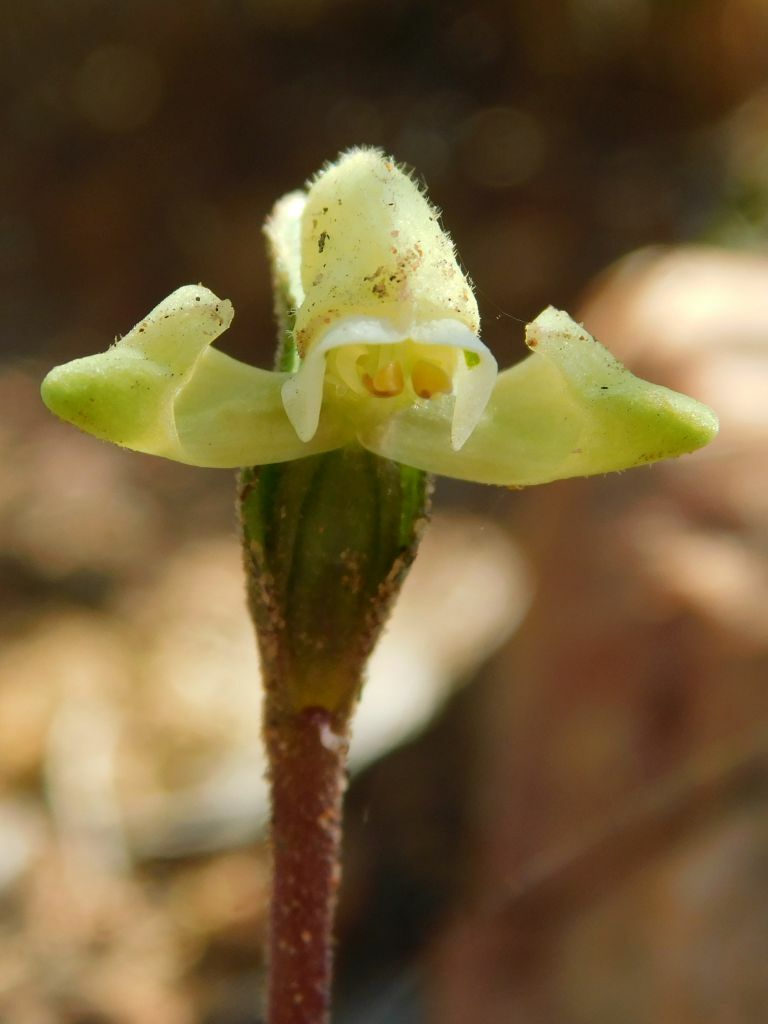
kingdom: Plantae
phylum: Tracheophyta
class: Liliopsida
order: Asparagales
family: Orchidaceae
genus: Disperis
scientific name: Disperis villosa
